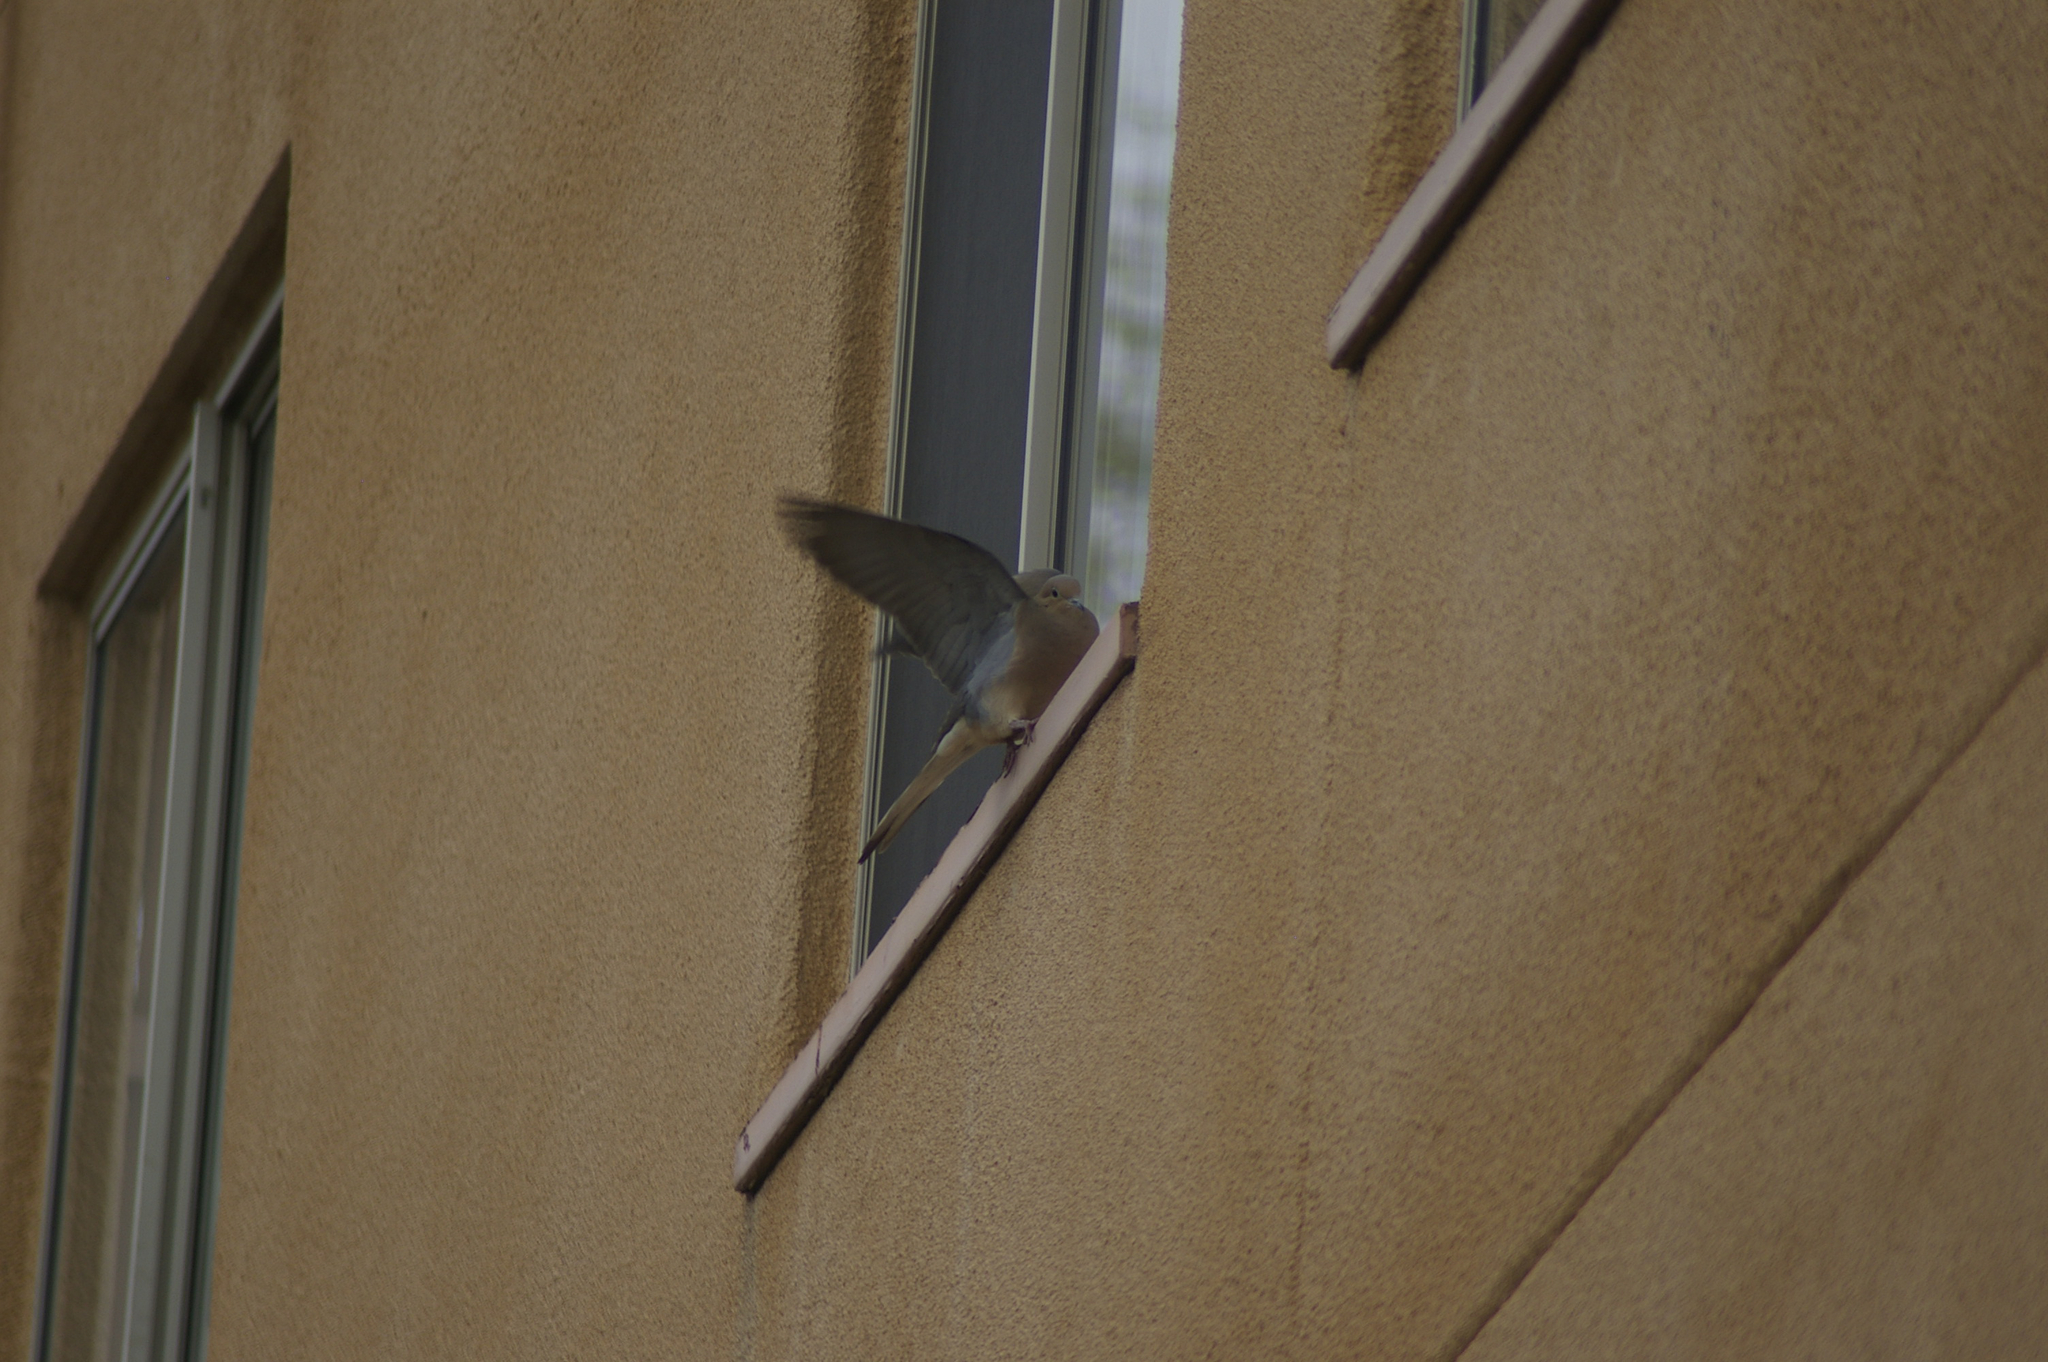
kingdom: Animalia
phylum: Chordata
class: Aves
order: Columbiformes
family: Columbidae
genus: Zenaida
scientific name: Zenaida macroura
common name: Mourning dove
